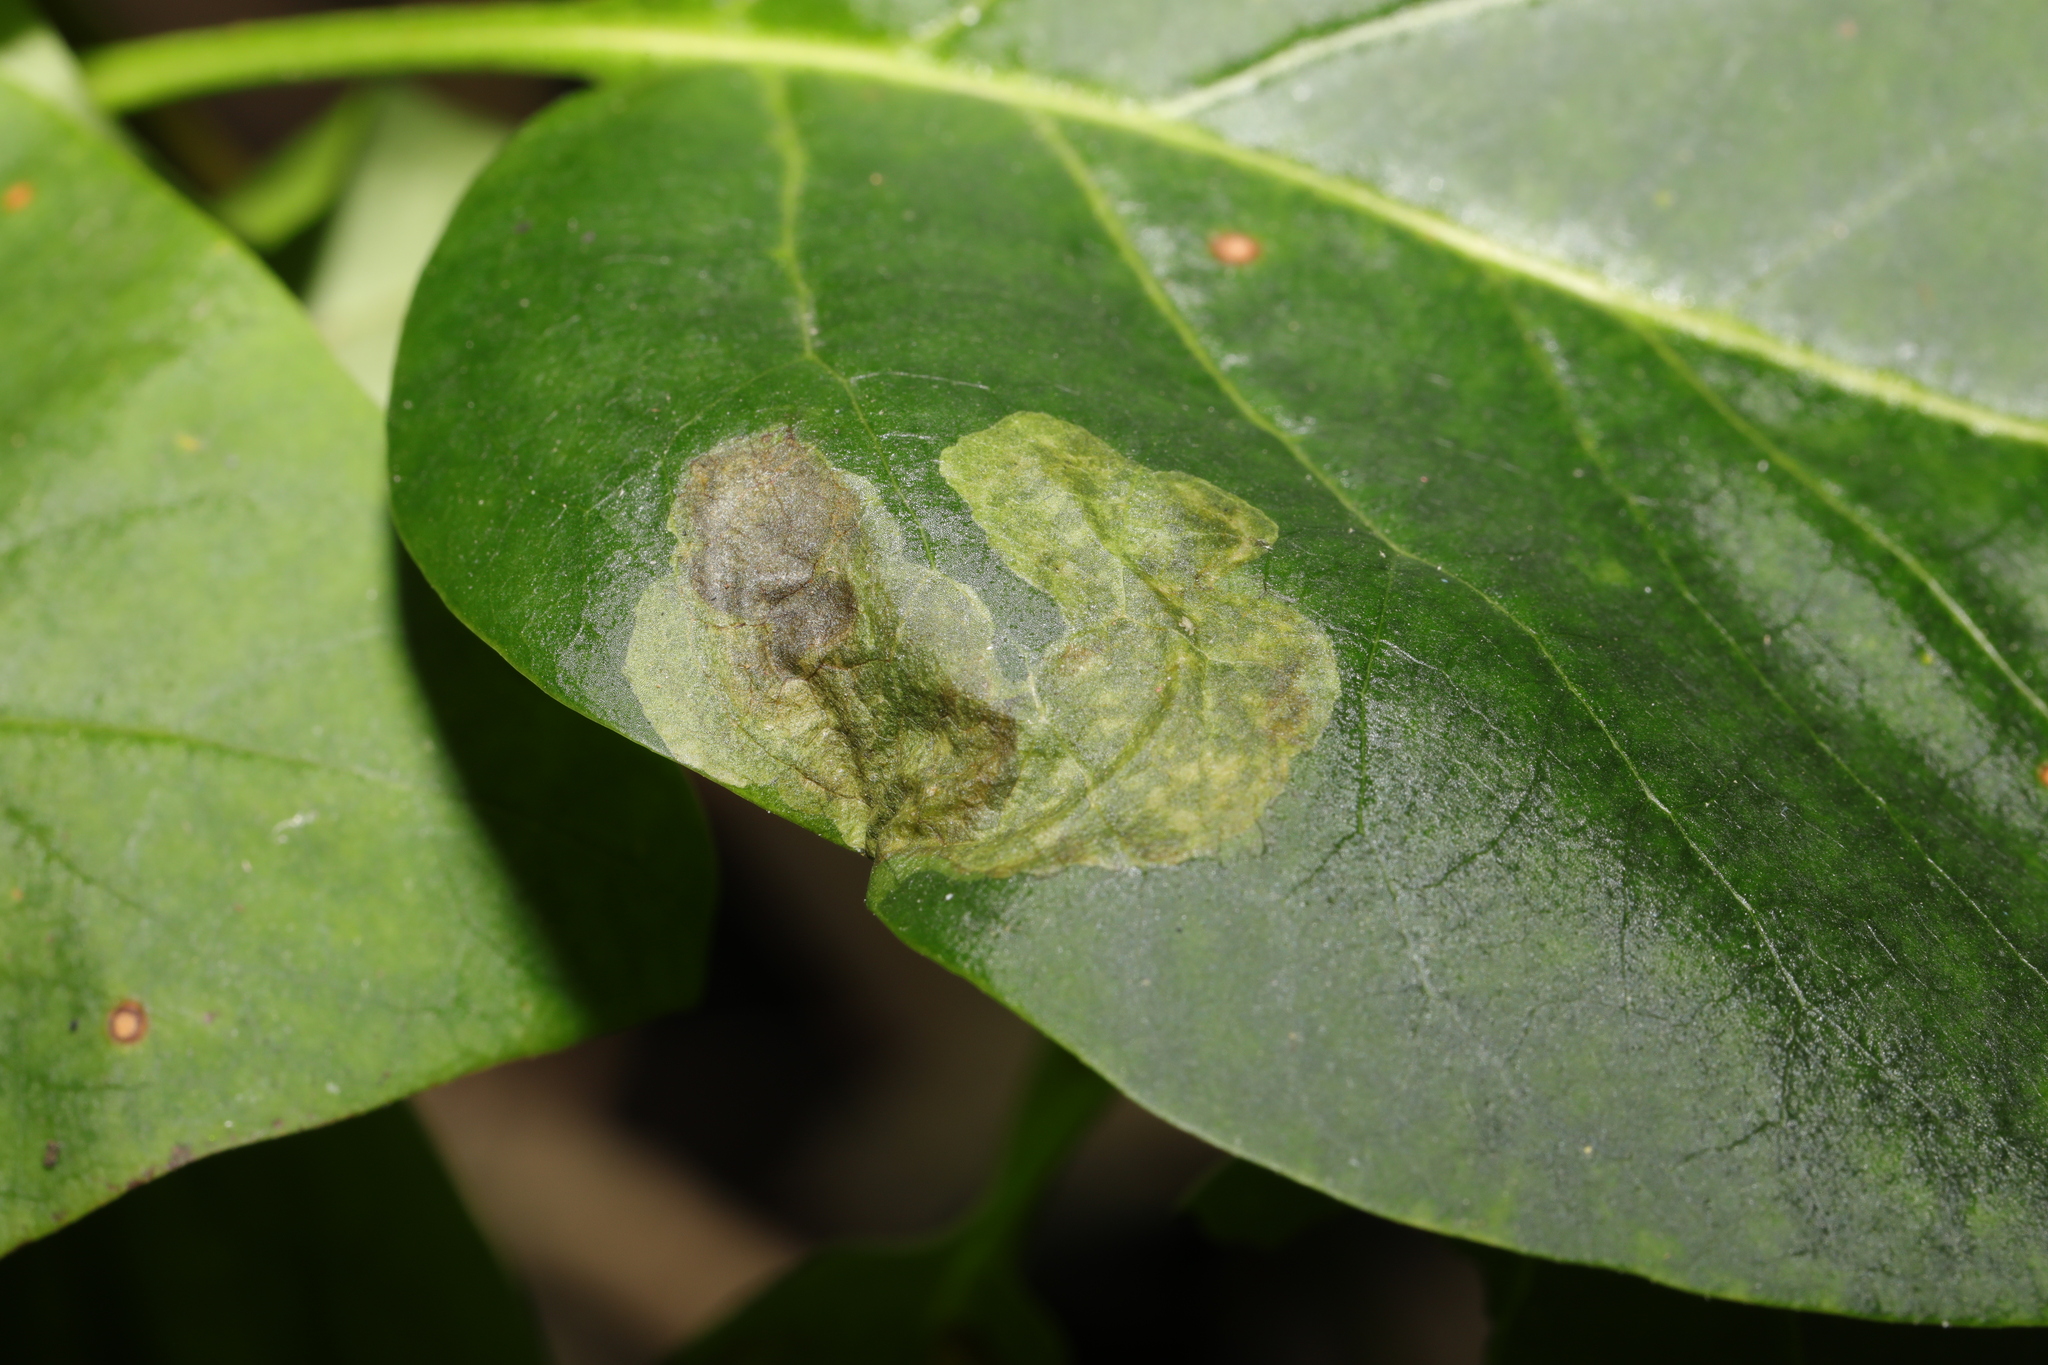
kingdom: Animalia
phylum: Arthropoda
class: Insecta
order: Lepidoptera
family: Gracillariidae
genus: Gracillaria
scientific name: Gracillaria syringella
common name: Common slender
